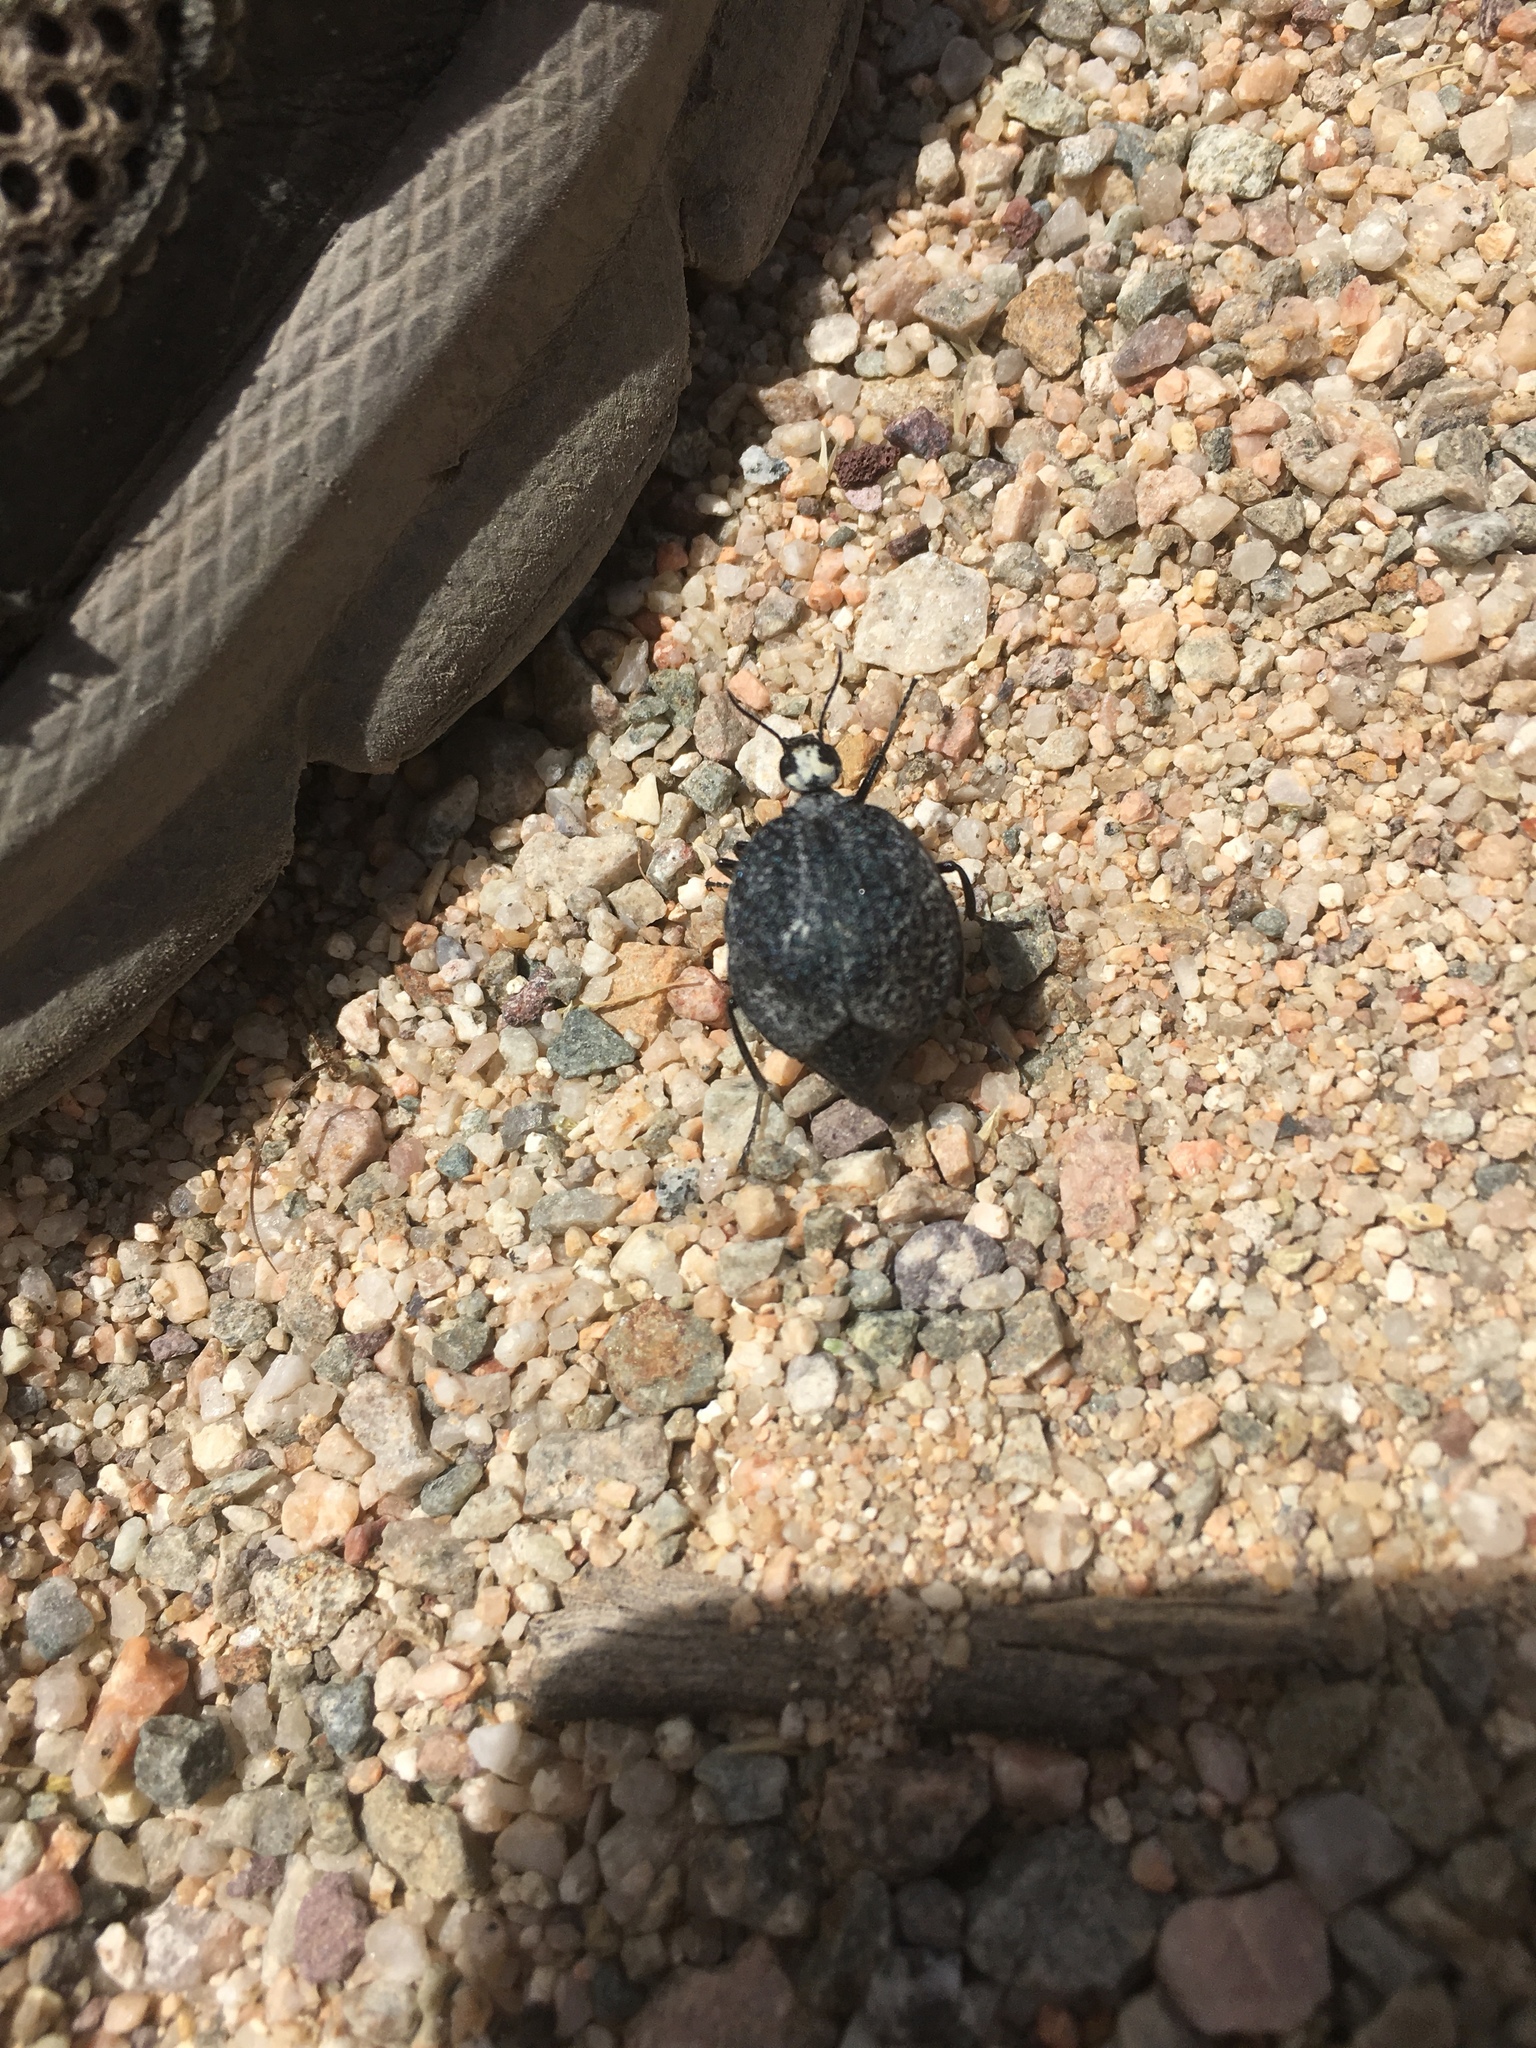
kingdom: Animalia
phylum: Arthropoda
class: Insecta
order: Coleoptera
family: Meloidae
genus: Cysteodemus
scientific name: Cysteodemus armatus
